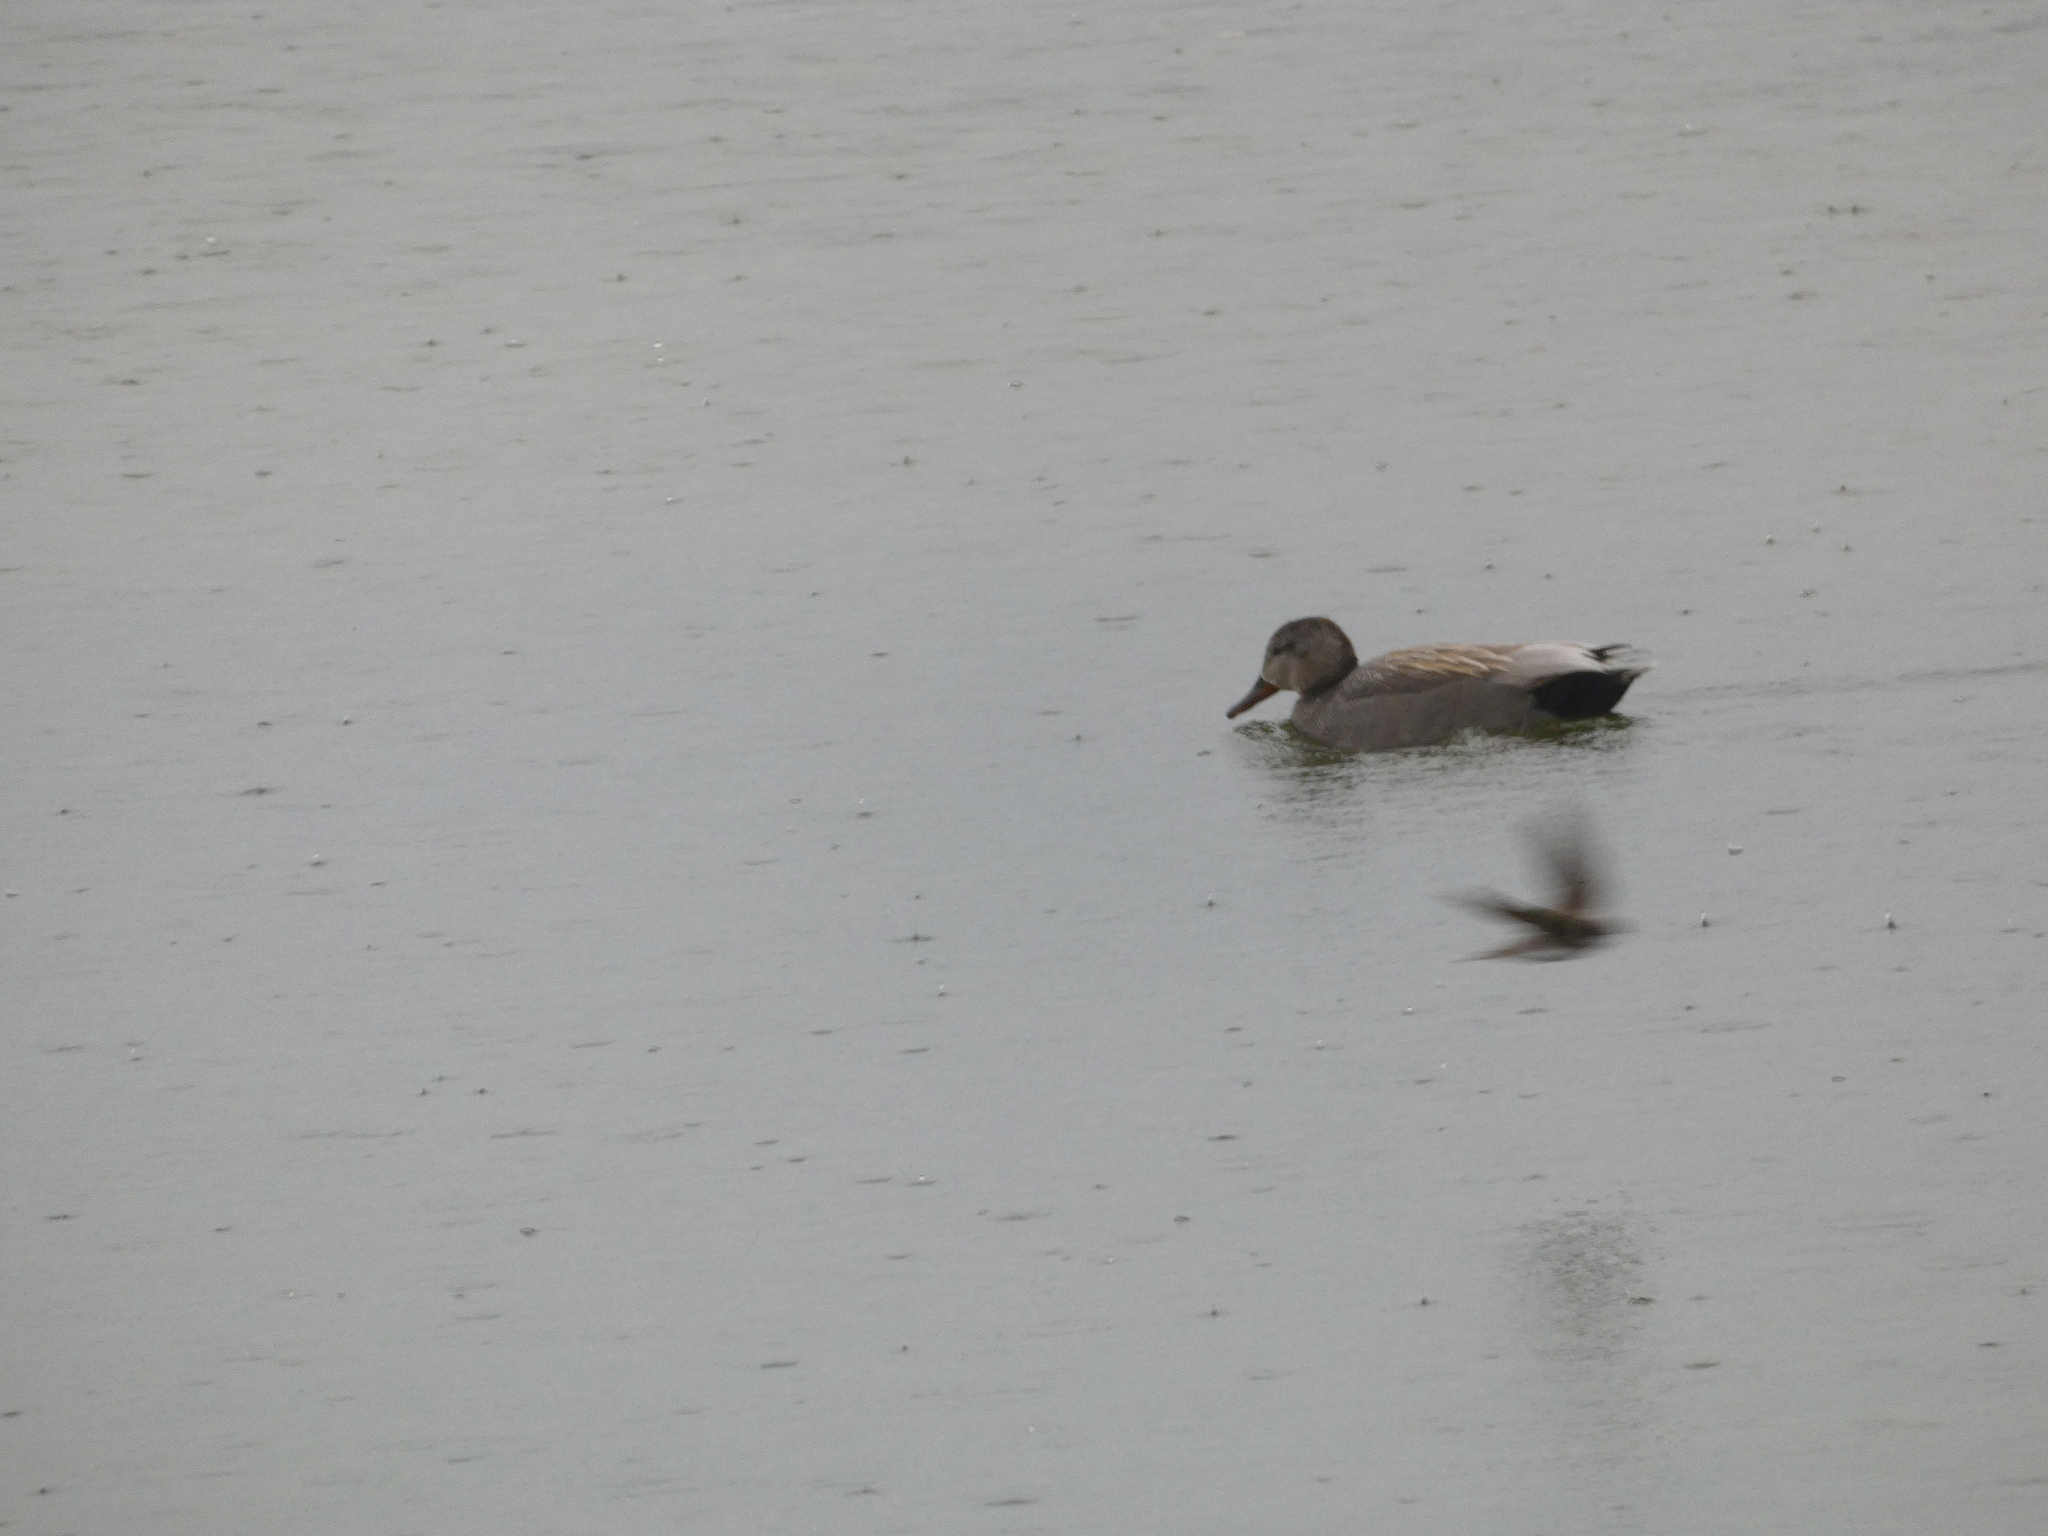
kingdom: Animalia
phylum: Chordata
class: Aves
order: Anseriformes
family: Anatidae
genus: Mareca
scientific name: Mareca strepera
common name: Gadwall
